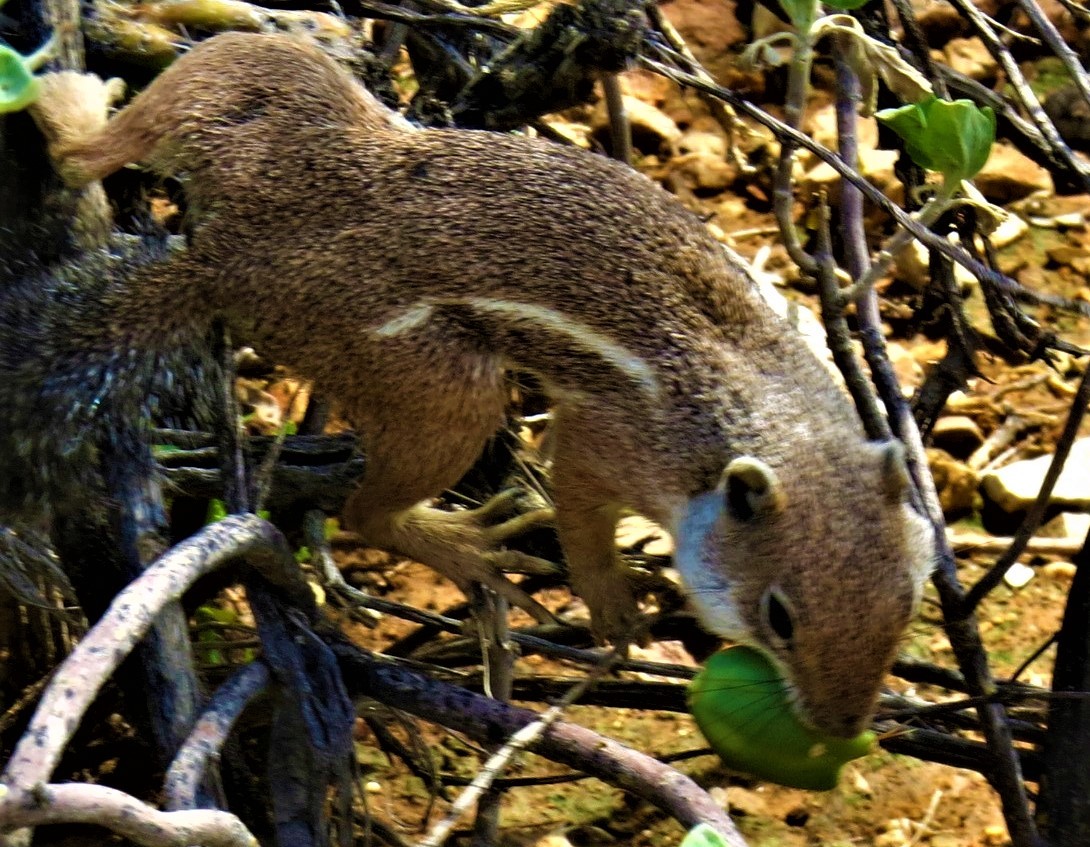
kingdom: Animalia
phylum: Chordata
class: Mammalia
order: Rodentia
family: Sciuridae
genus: Ammospermophilus
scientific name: Ammospermophilus harrisii
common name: Harris's antelope squirrel
